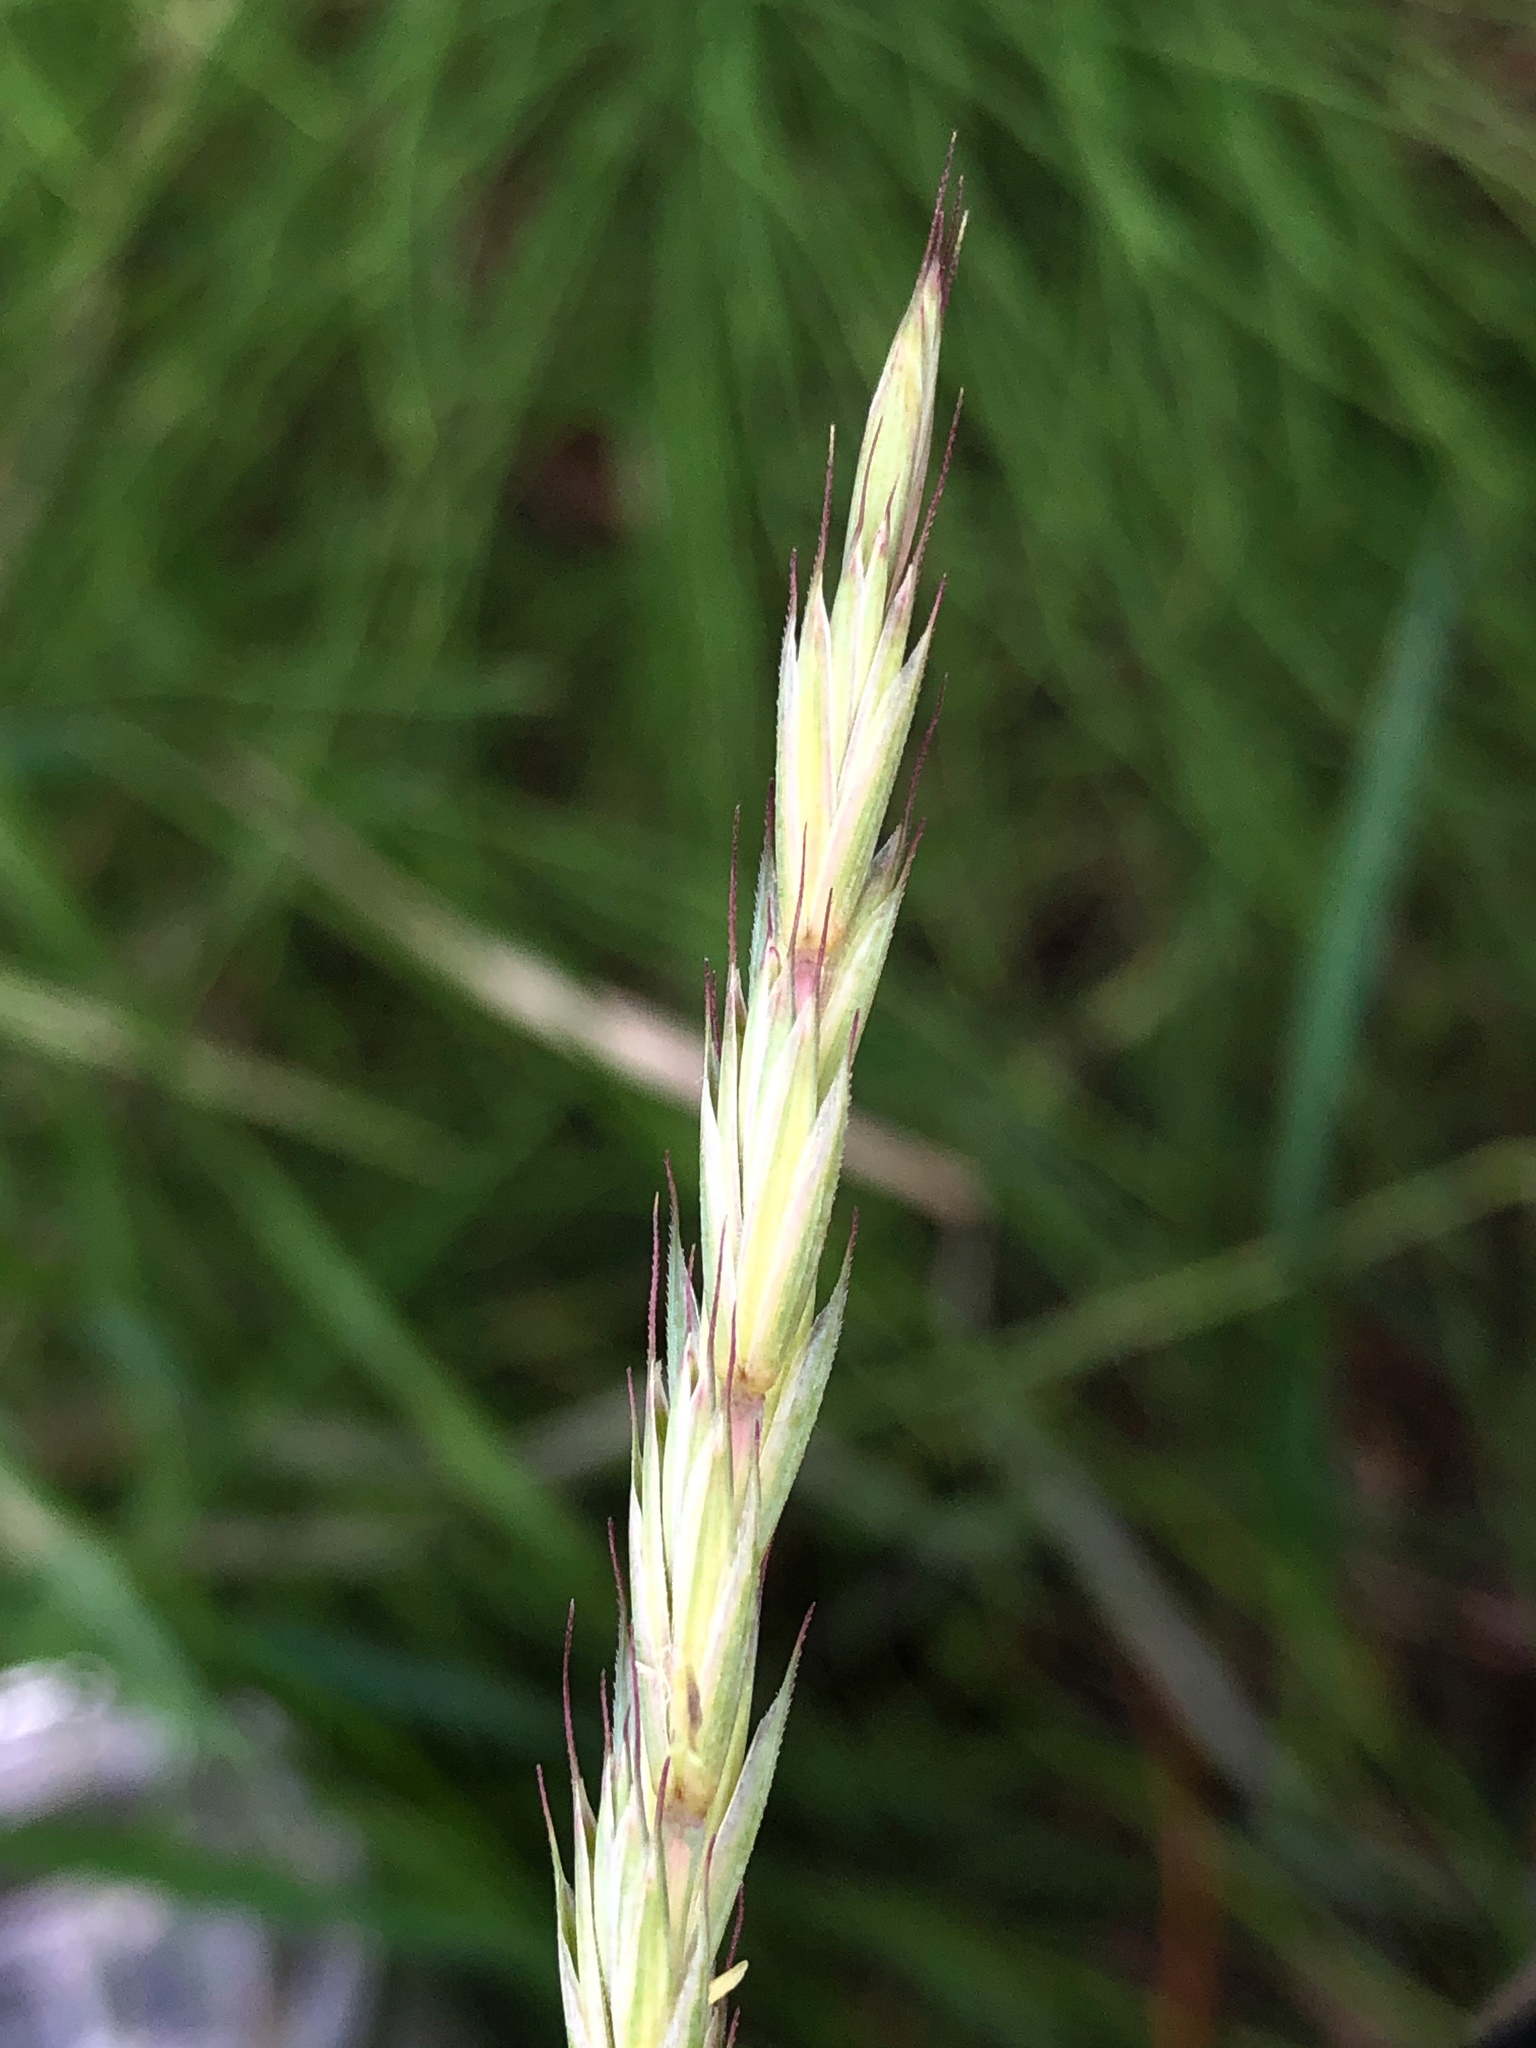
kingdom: Plantae
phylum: Tracheophyta
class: Liliopsida
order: Poales
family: Poaceae
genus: Elymus
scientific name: Elymus repens
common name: Quackgrass
